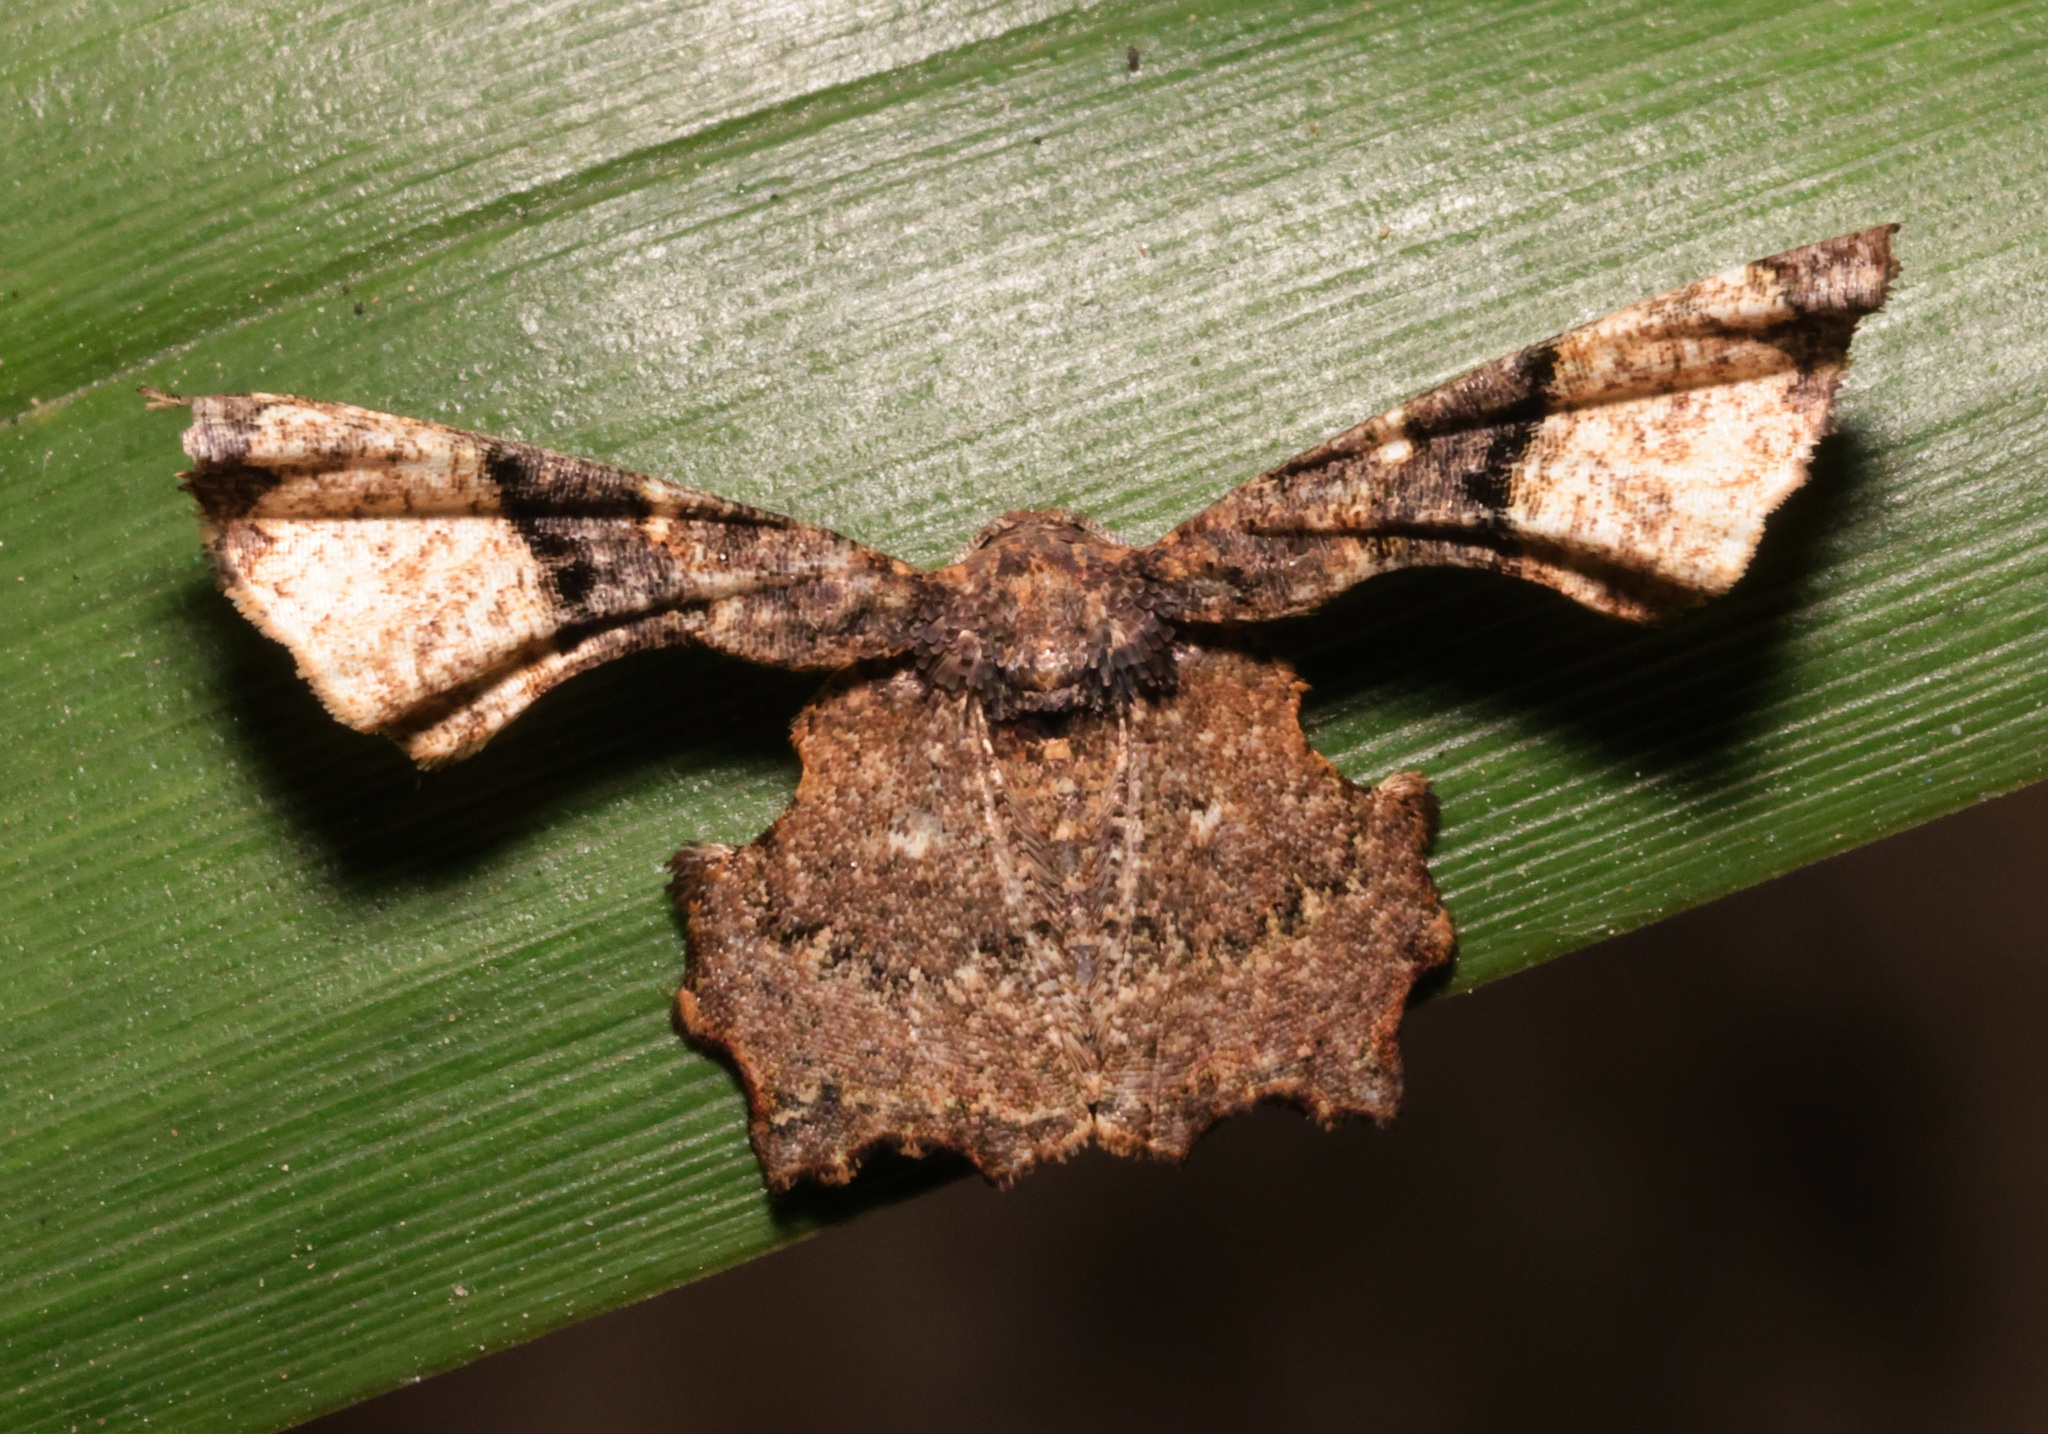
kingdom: Animalia
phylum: Arthropoda
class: Insecta
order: Lepidoptera
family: Uraniidae
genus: Gathynia
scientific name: Gathynia pernigrata
